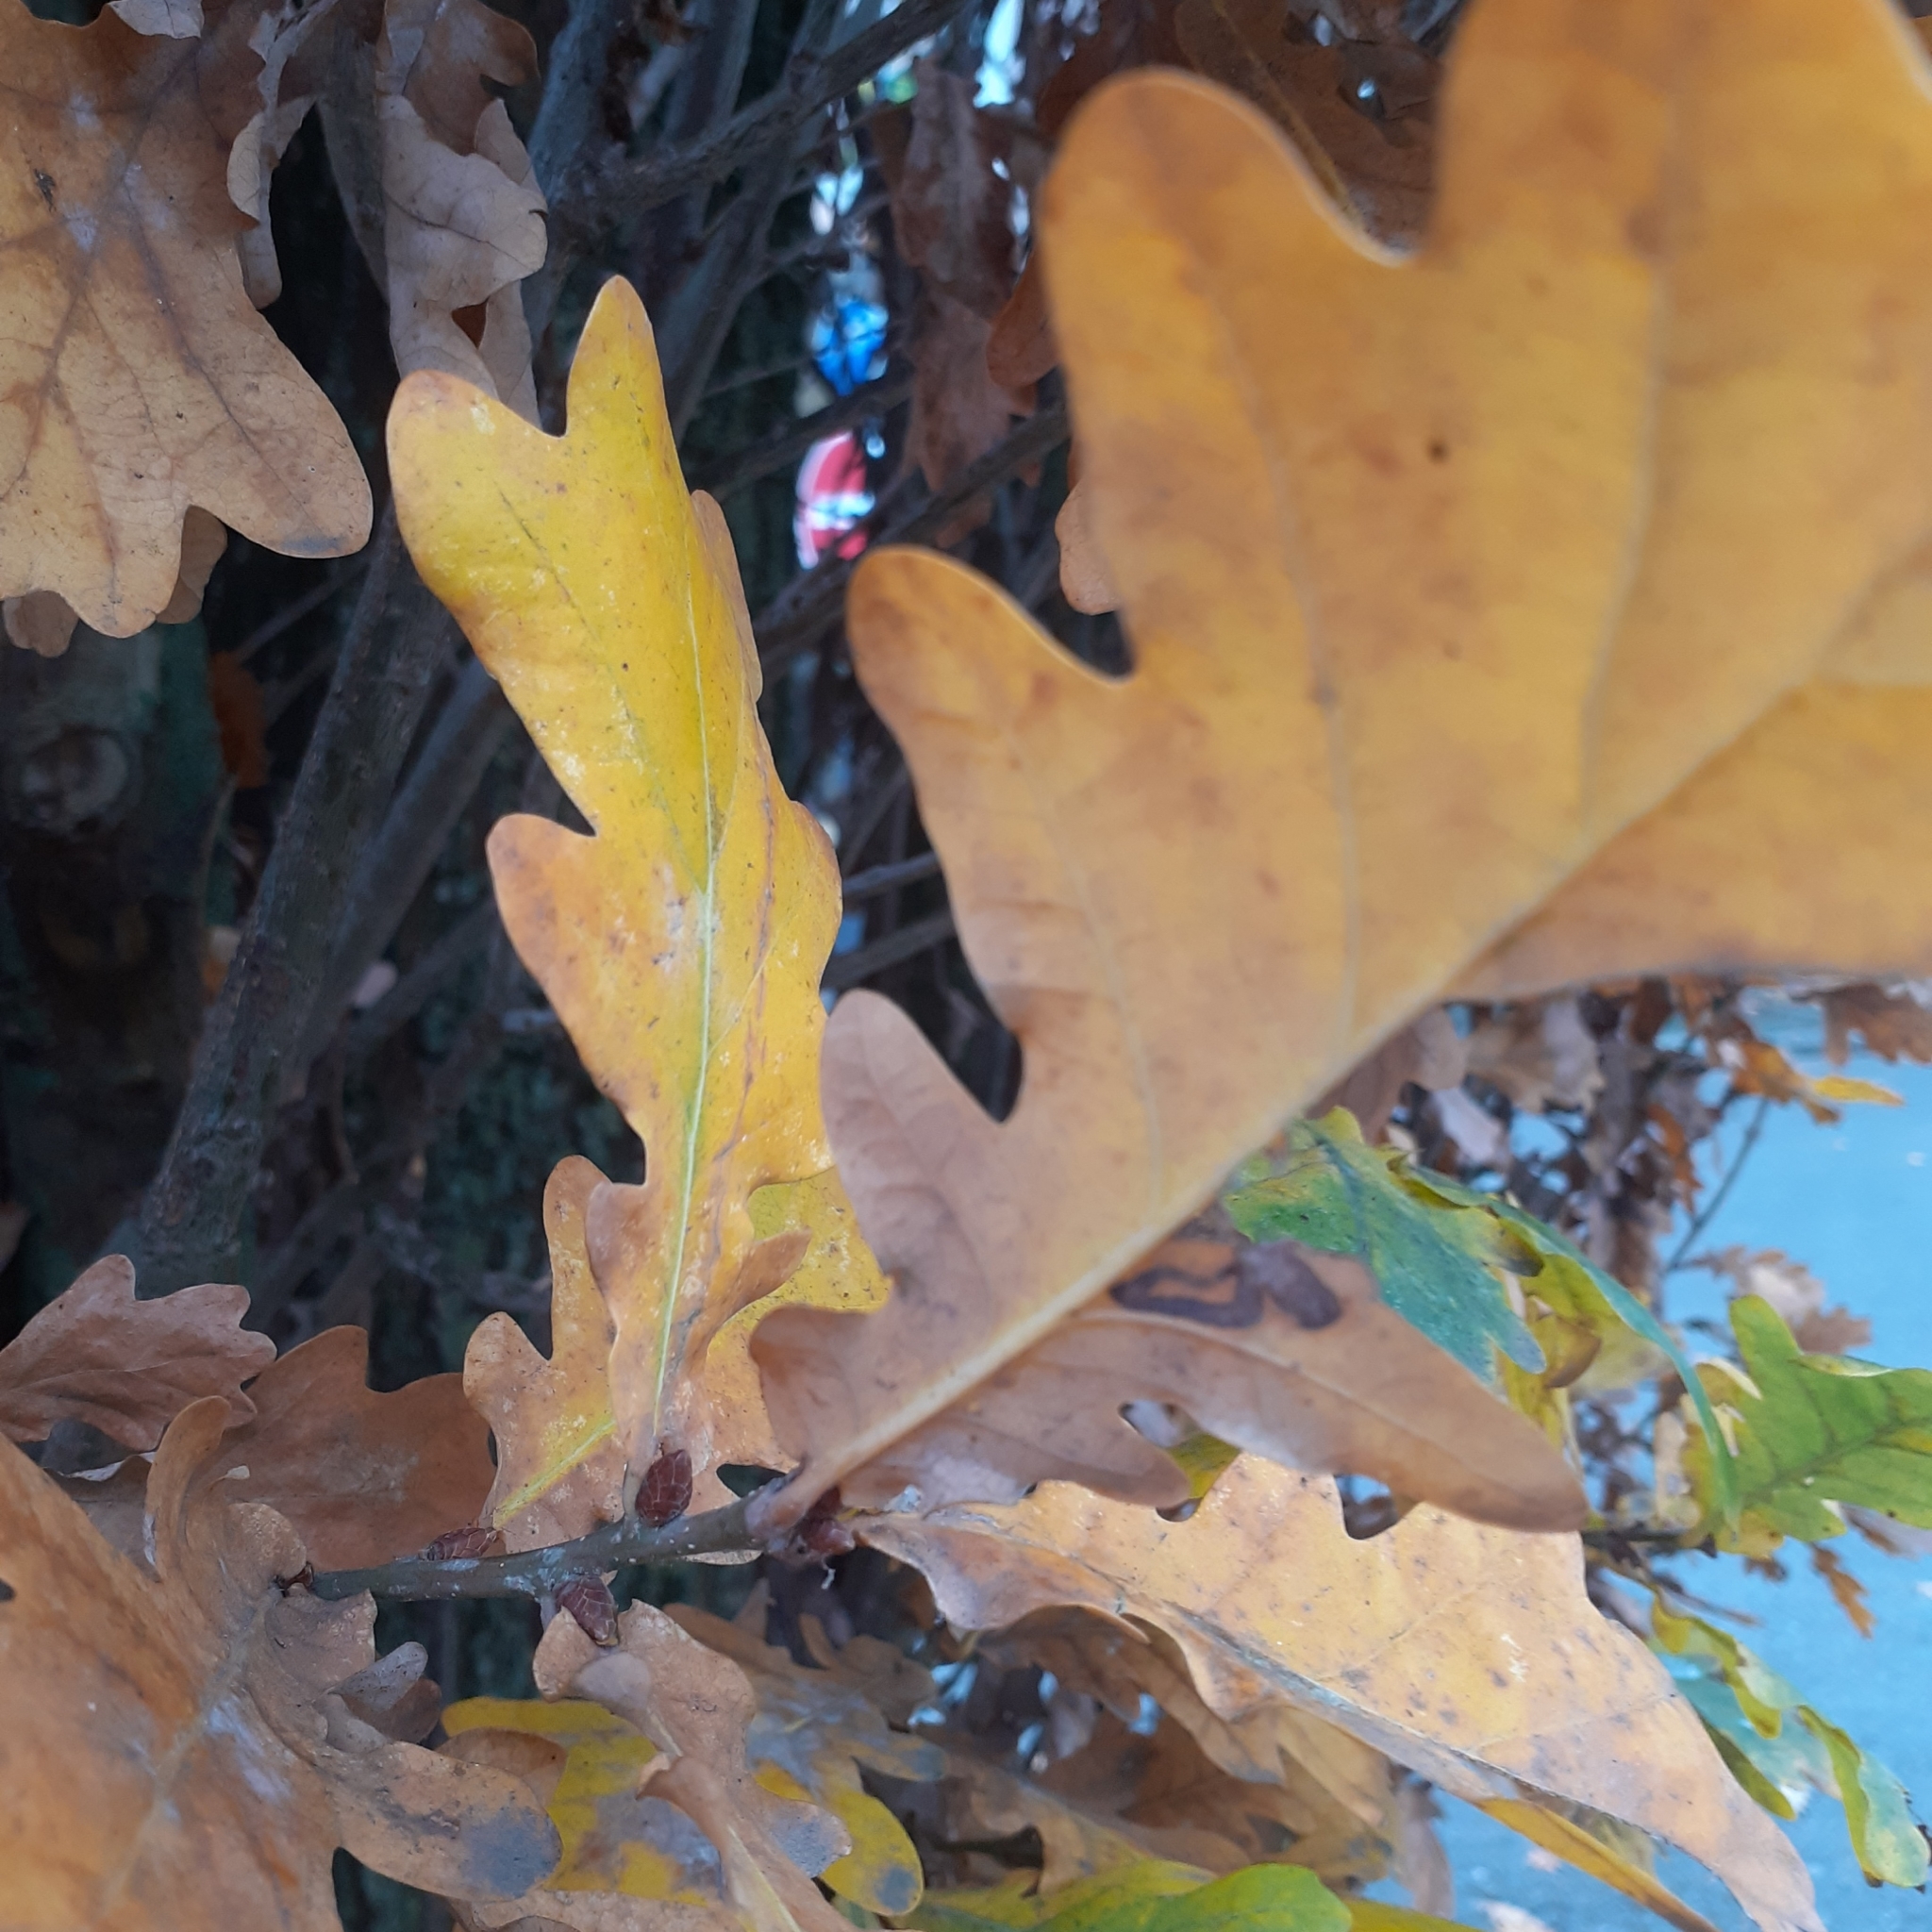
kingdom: Plantae
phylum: Tracheophyta
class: Magnoliopsida
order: Fagales
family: Fagaceae
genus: Quercus
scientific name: Quercus robur
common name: Pedunculate oak
